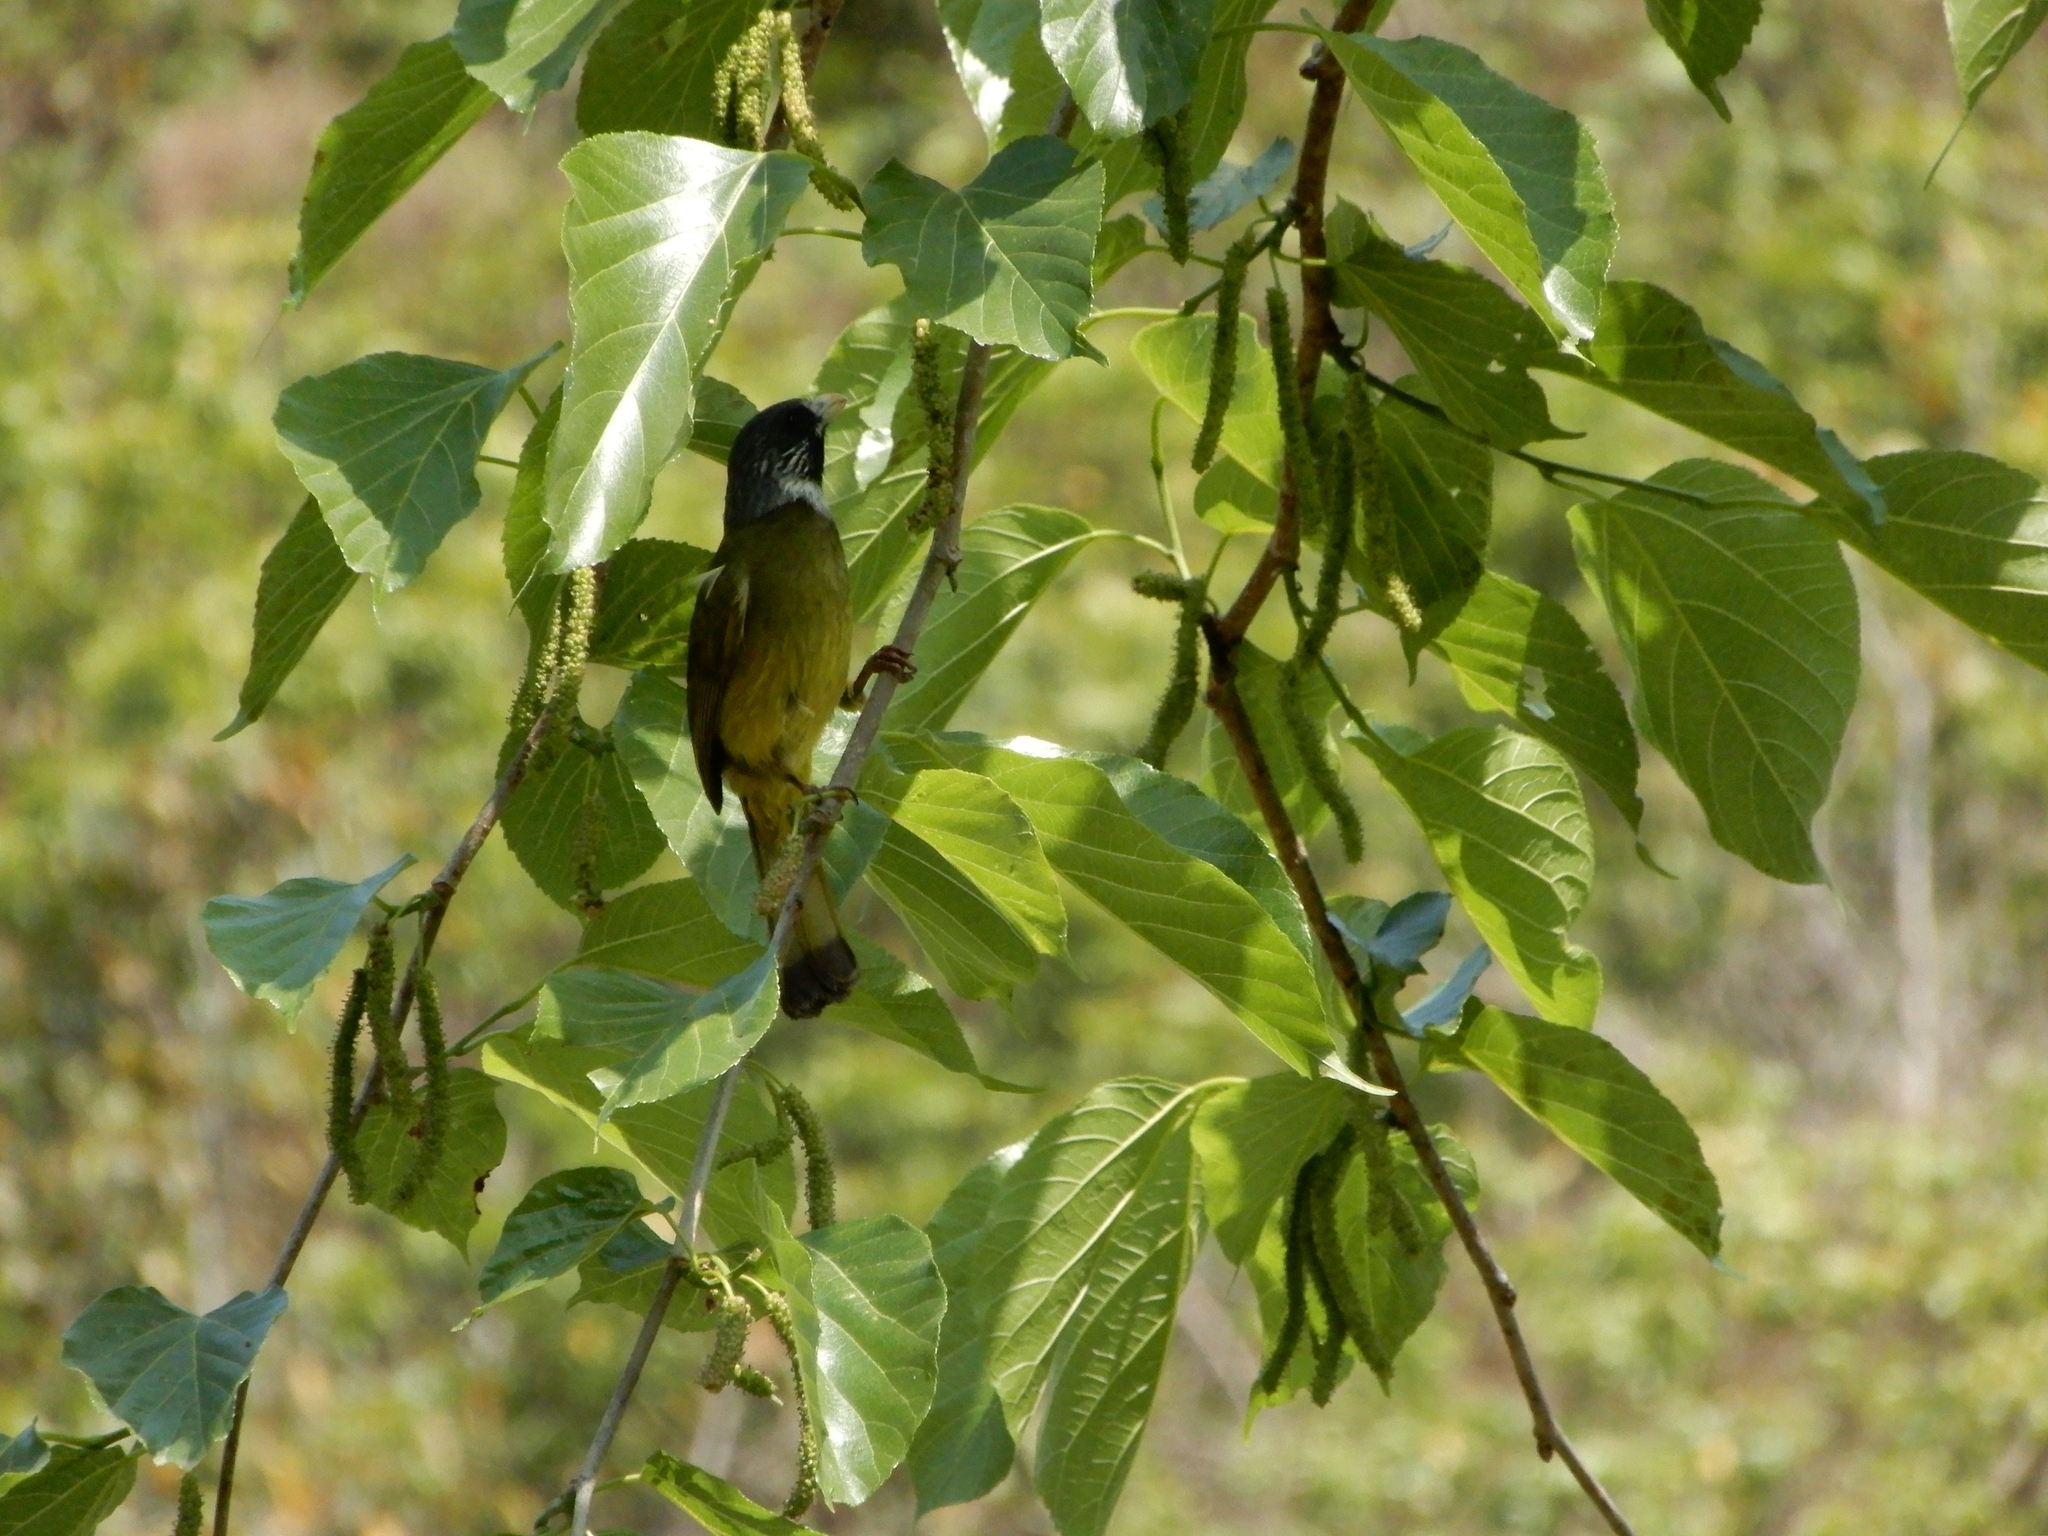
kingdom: Animalia
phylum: Chordata
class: Aves
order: Passeriformes
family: Pycnonotidae
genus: Spizixos
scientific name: Spizixos semitorques
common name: Collared finchbill
